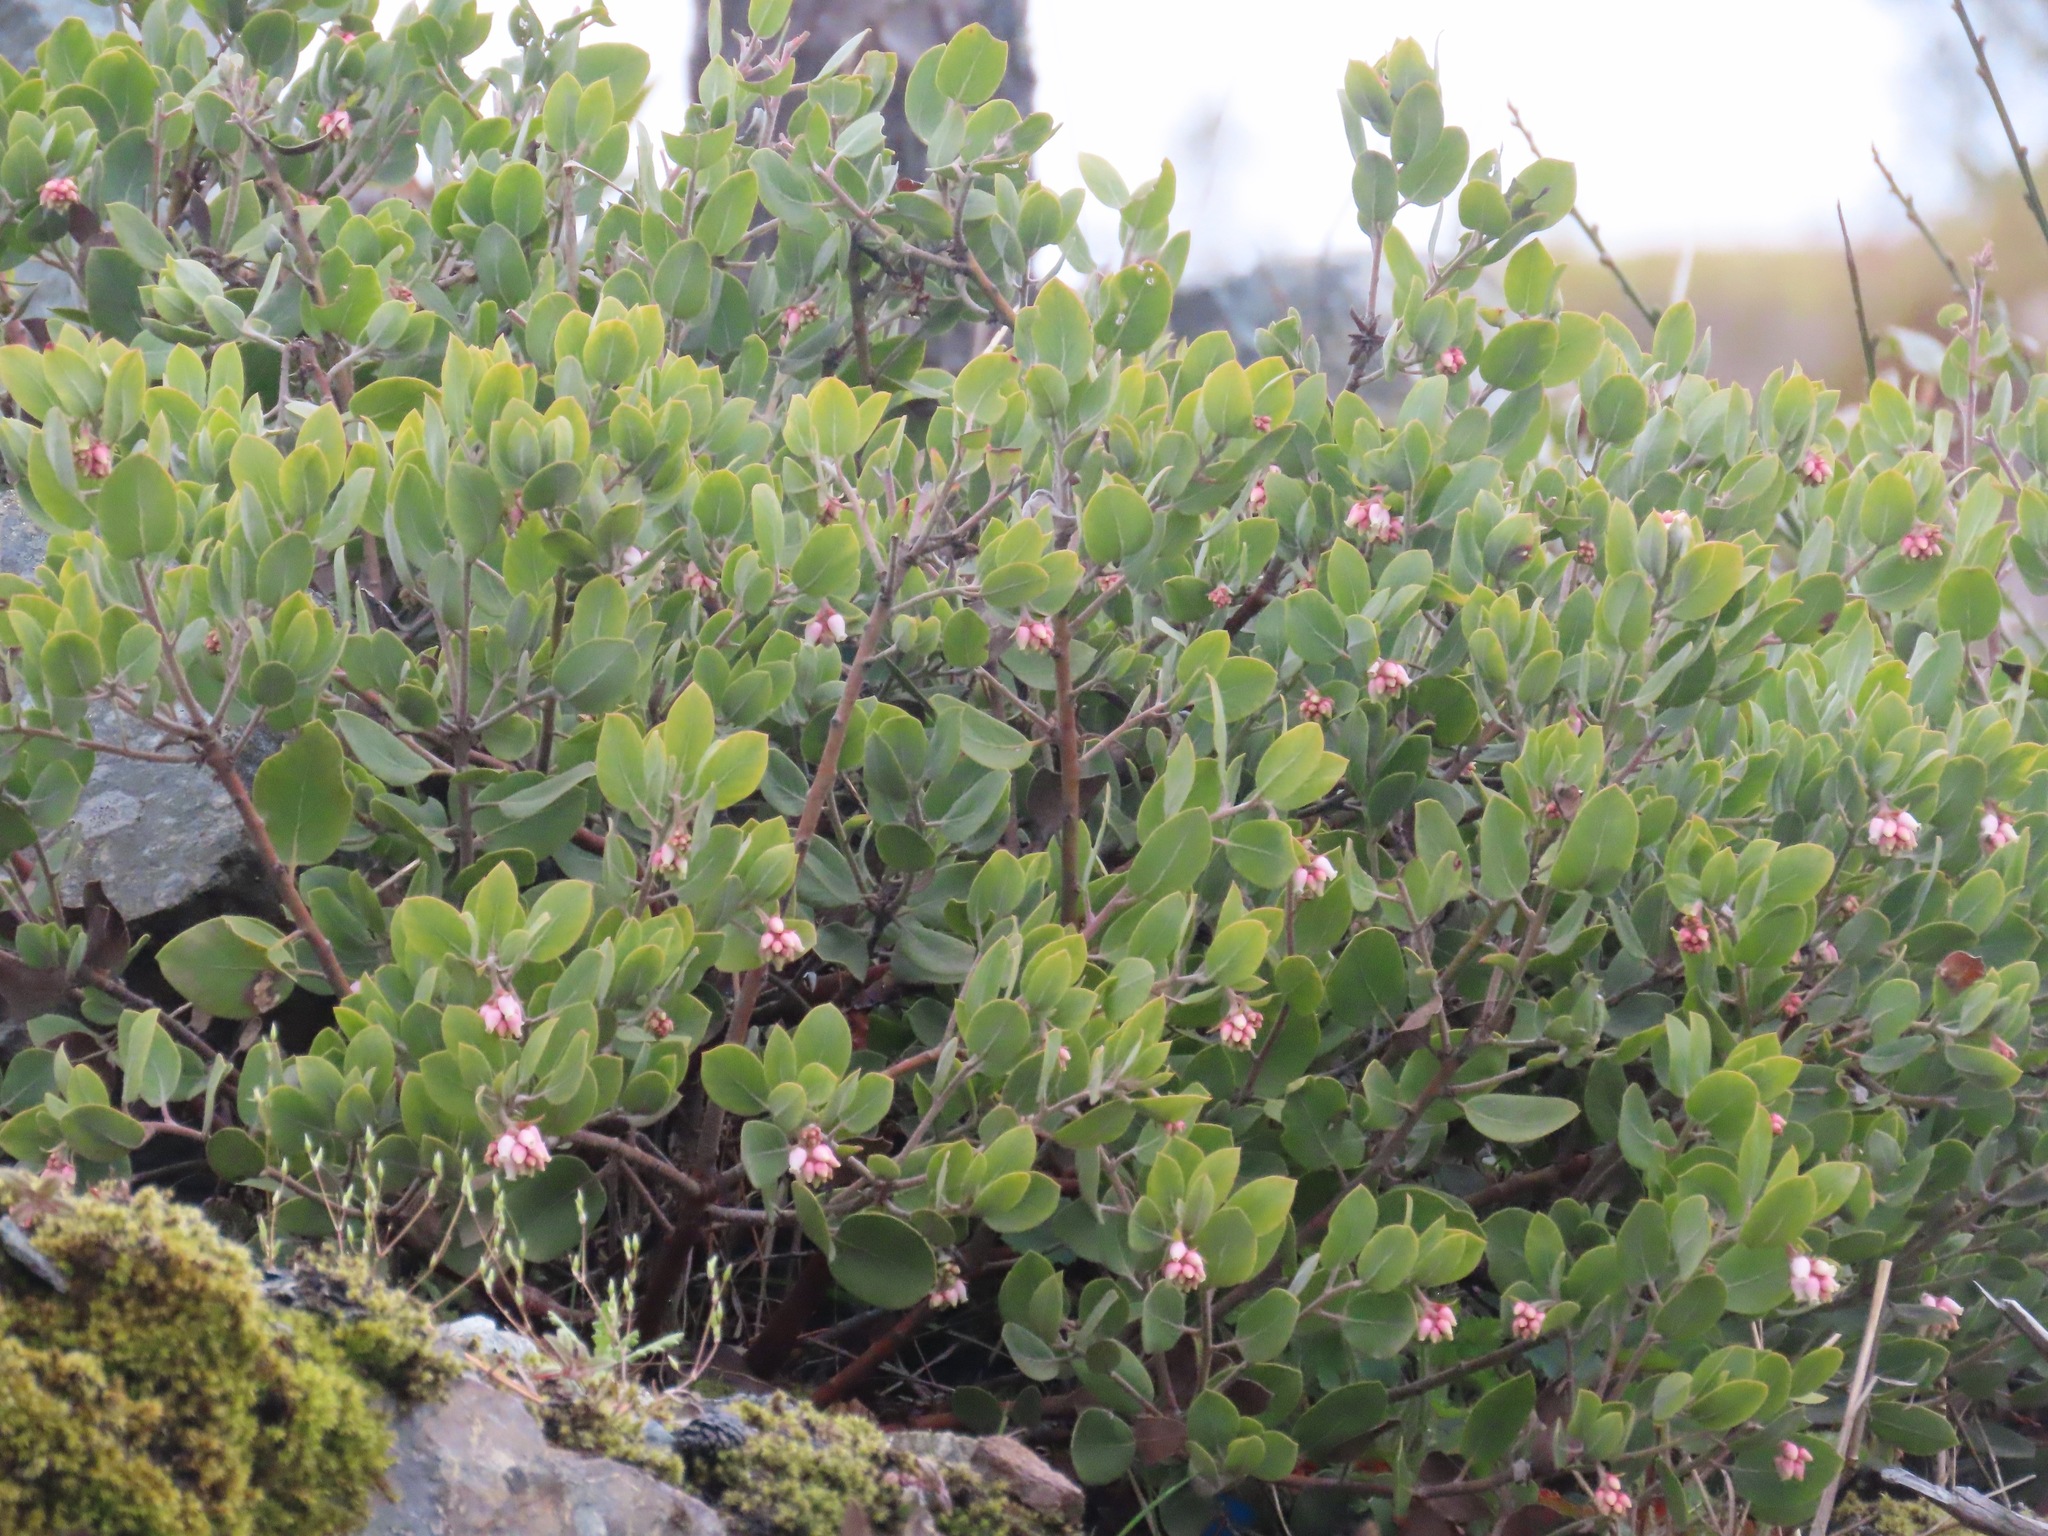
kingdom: Plantae
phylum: Tracheophyta
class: Magnoliopsida
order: Ericales
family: Ericaceae
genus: Arctostaphylos
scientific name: Arctostaphylos columbiana
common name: Bristly bearberry
